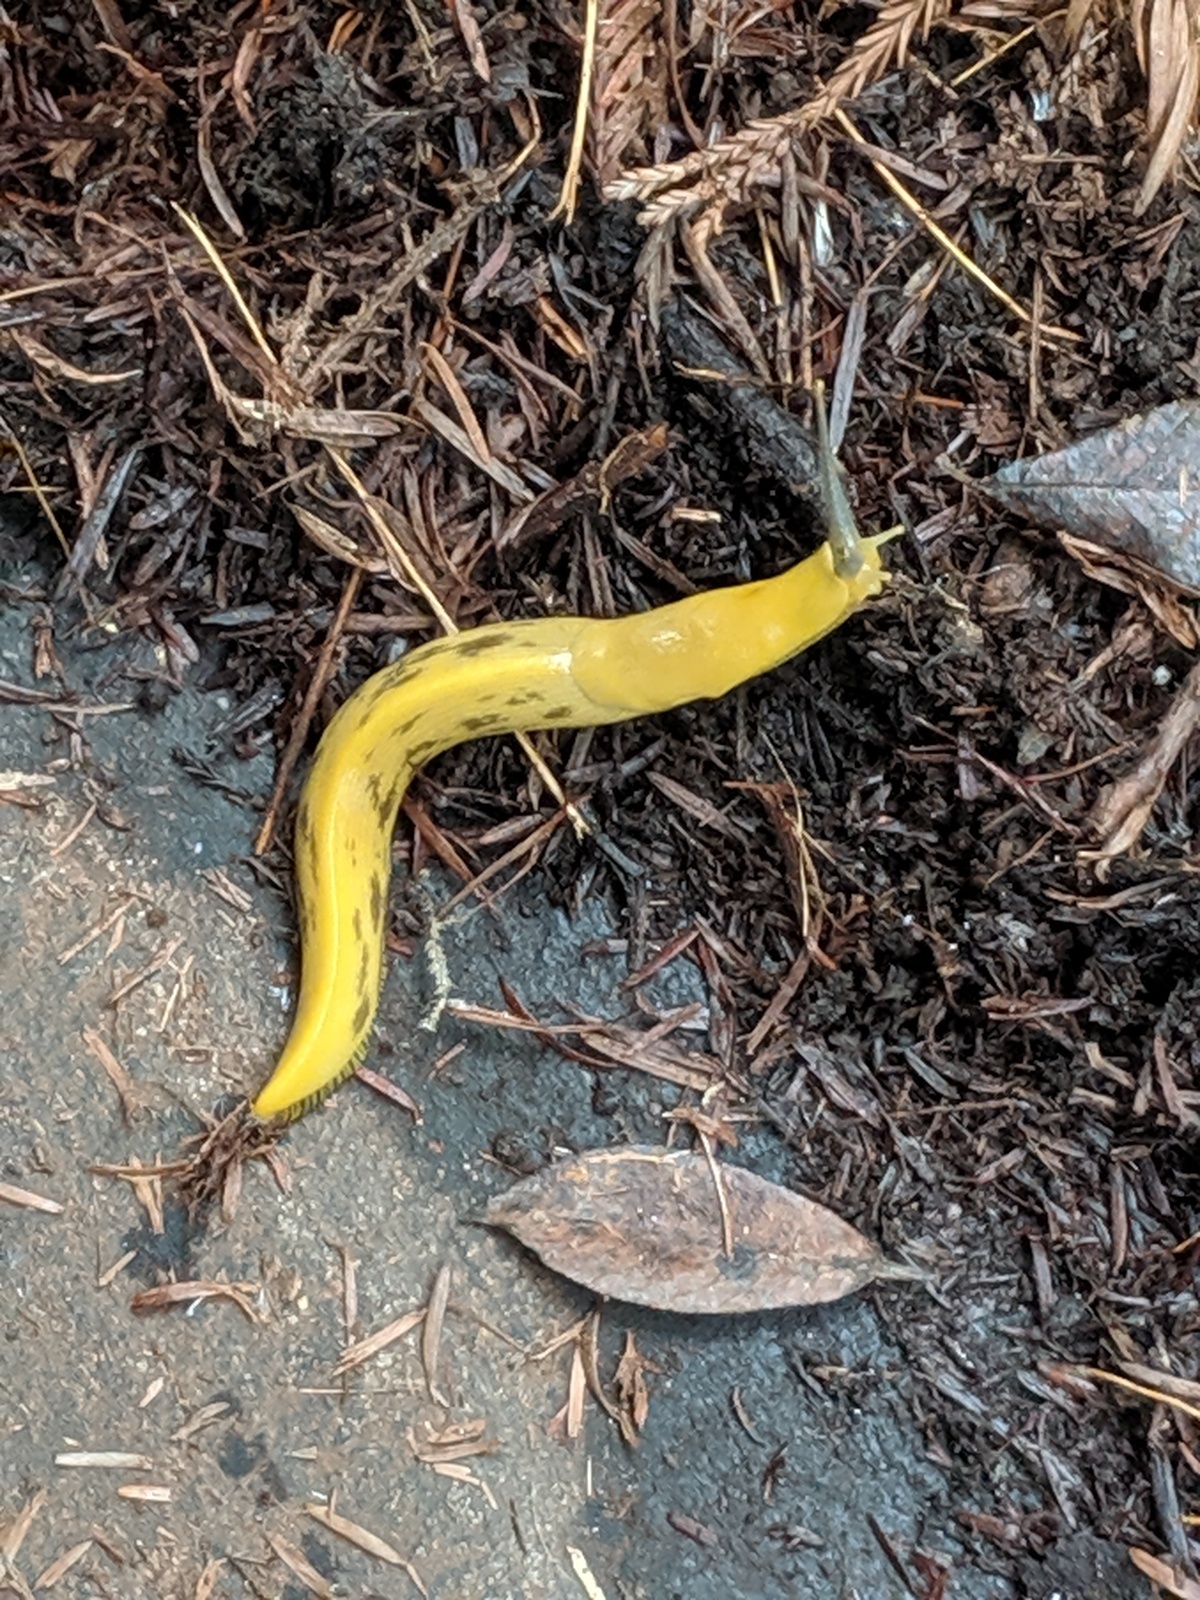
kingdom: Animalia
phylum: Mollusca
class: Gastropoda
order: Stylommatophora
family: Ariolimacidae
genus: Ariolimax
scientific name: Ariolimax columbianus
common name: Pacific banana slug
